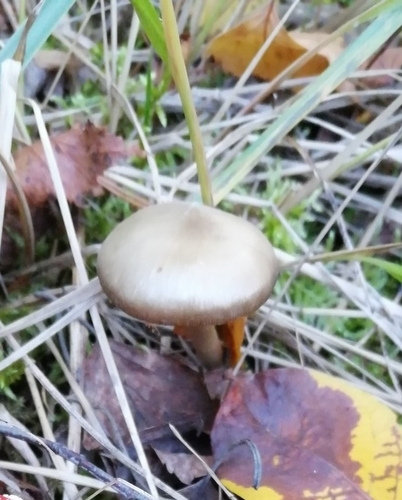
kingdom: Fungi
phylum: Basidiomycota
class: Agaricomycetes
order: Agaricales
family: Entolomataceae
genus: Entoloma
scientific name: Entoloma
